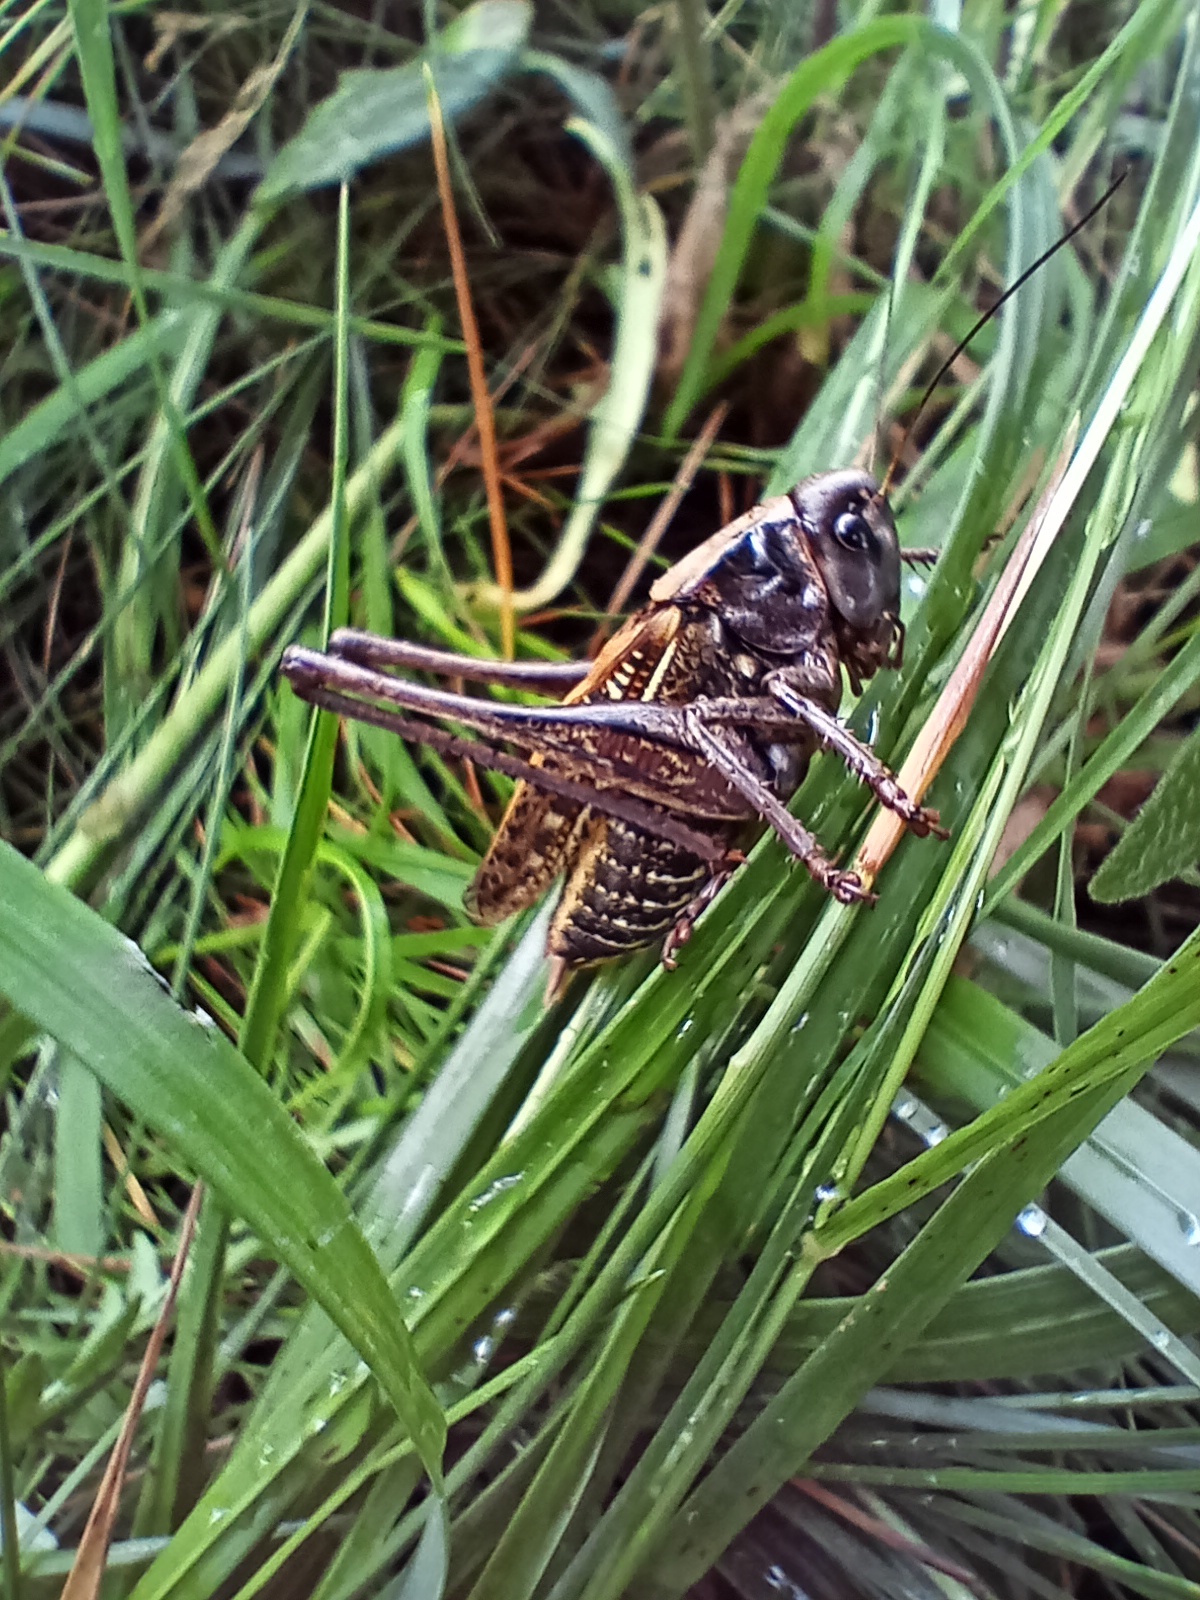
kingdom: Animalia
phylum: Arthropoda
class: Insecta
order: Orthoptera
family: Tettigoniidae
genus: Decticus
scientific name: Decticus verrucivorus
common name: Wart-biter
